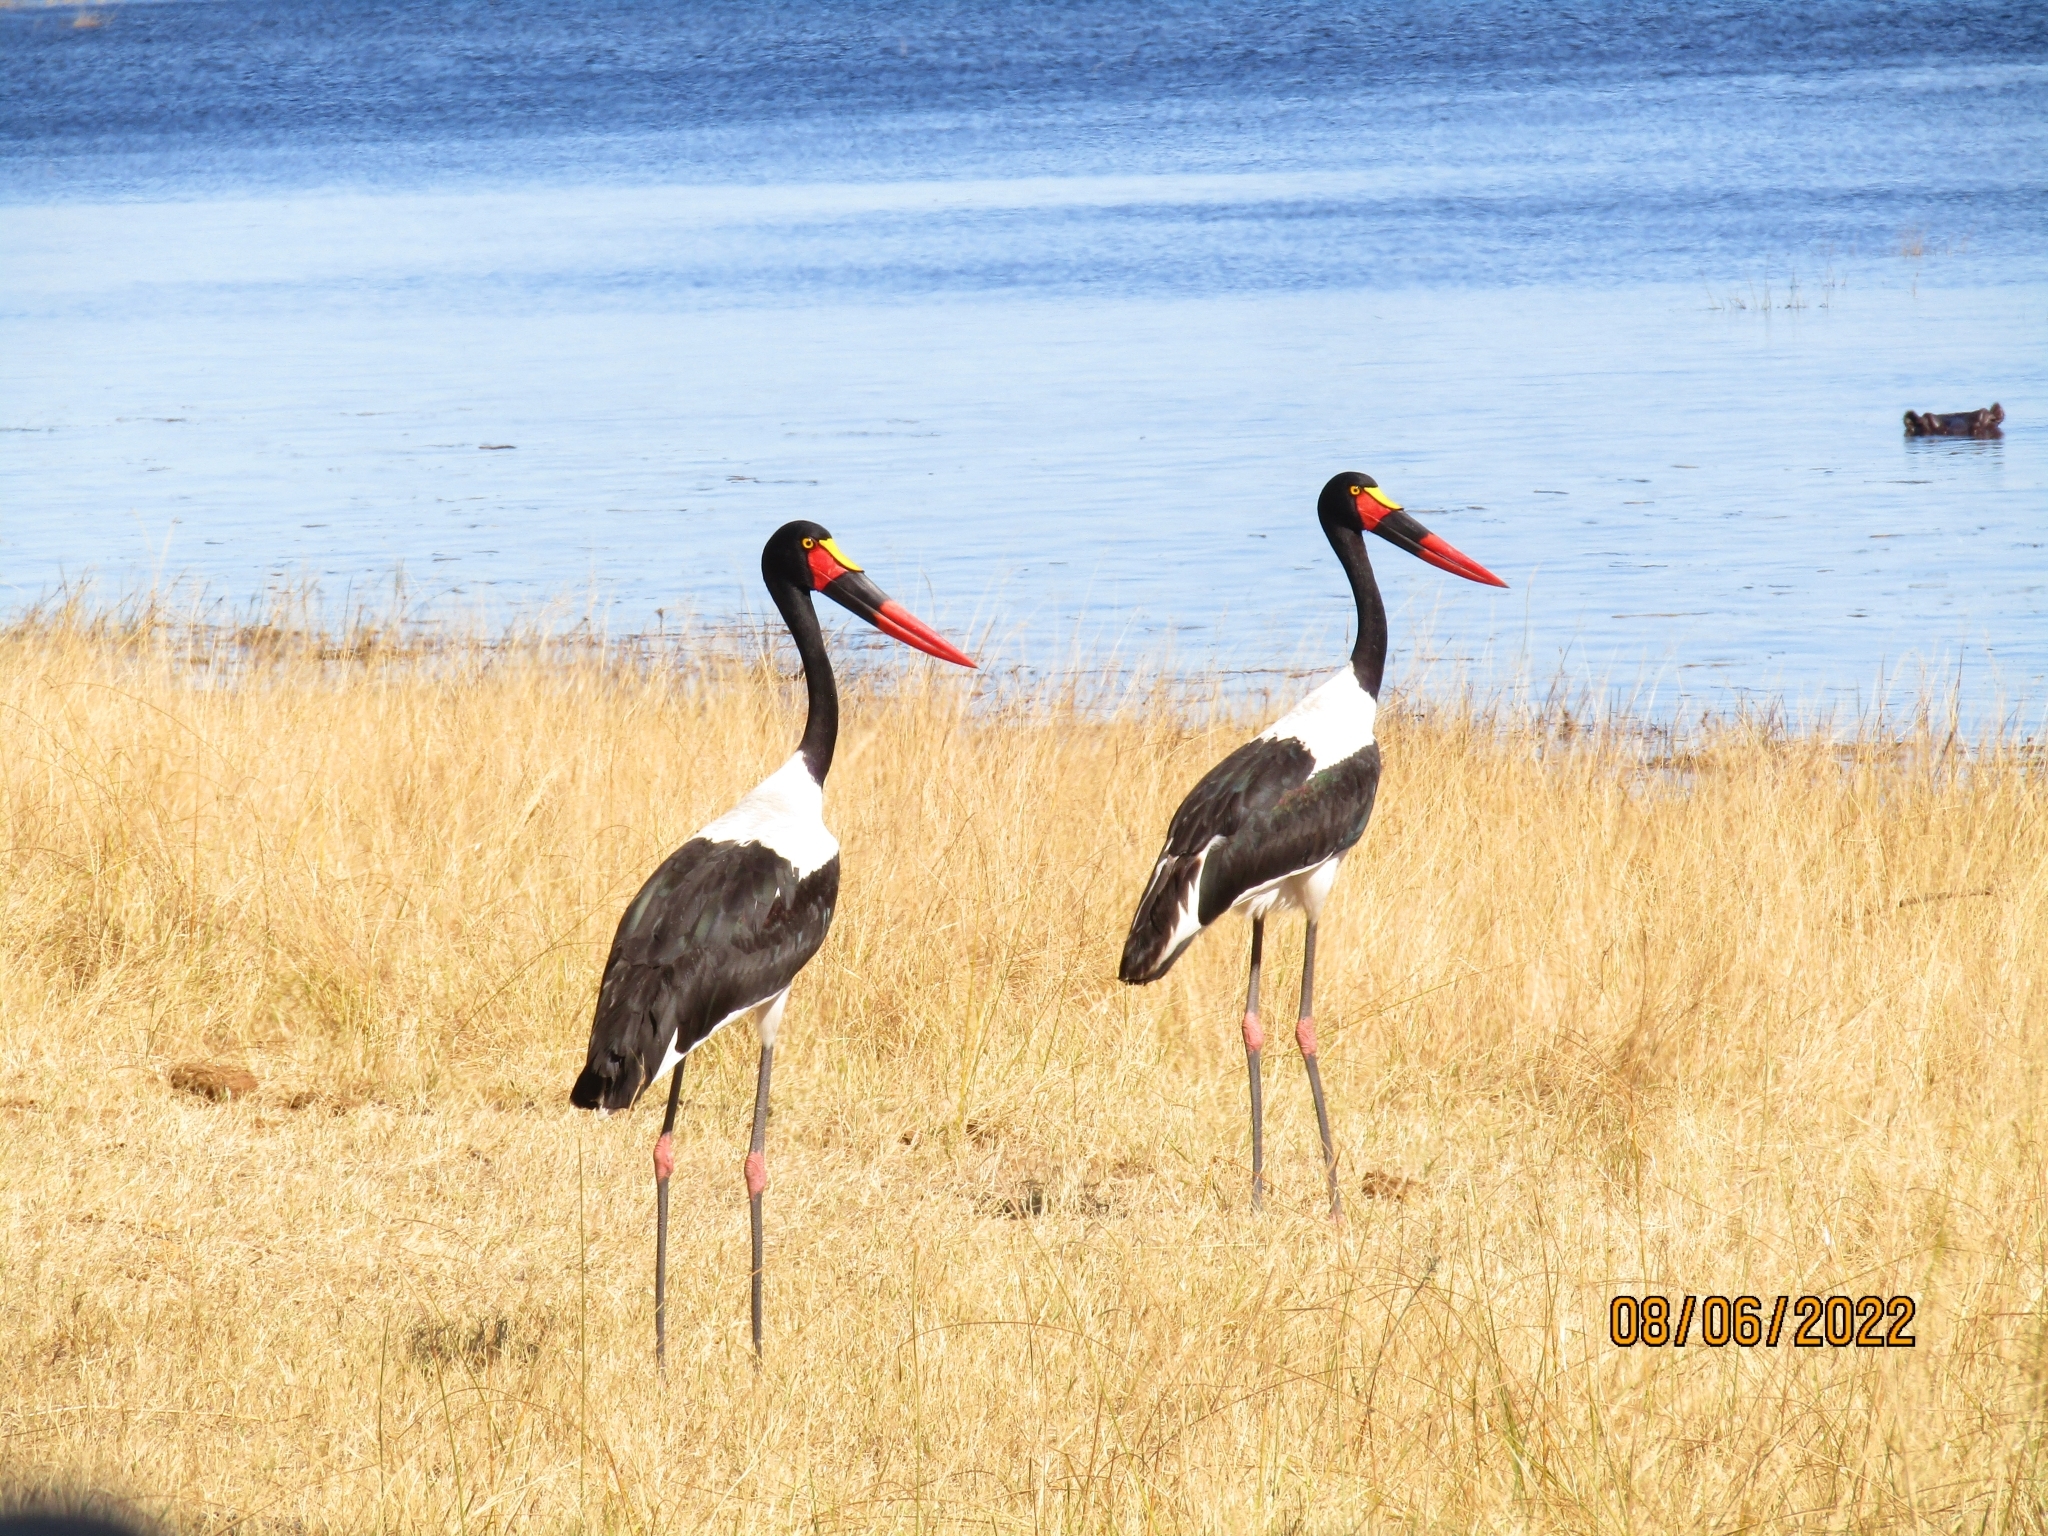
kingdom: Animalia
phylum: Chordata
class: Aves
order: Ciconiiformes
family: Ciconiidae
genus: Ephippiorhynchus
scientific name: Ephippiorhynchus senegalensis
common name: Saddle-billed stork
